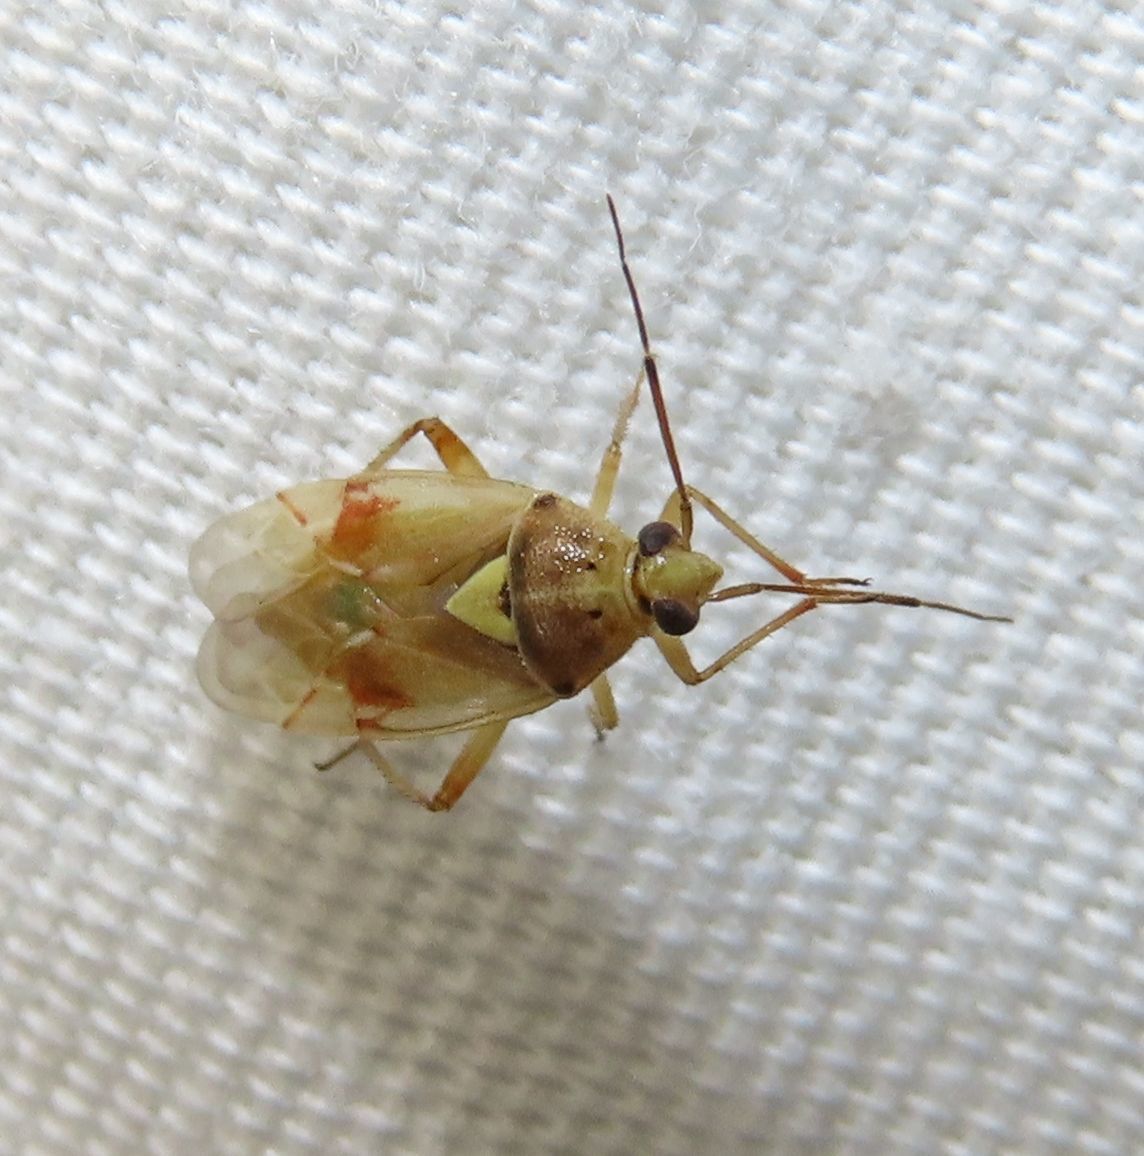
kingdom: Animalia
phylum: Arthropoda
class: Insecta
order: Hemiptera
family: Miridae
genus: Lygus
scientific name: Lygus hesperus
